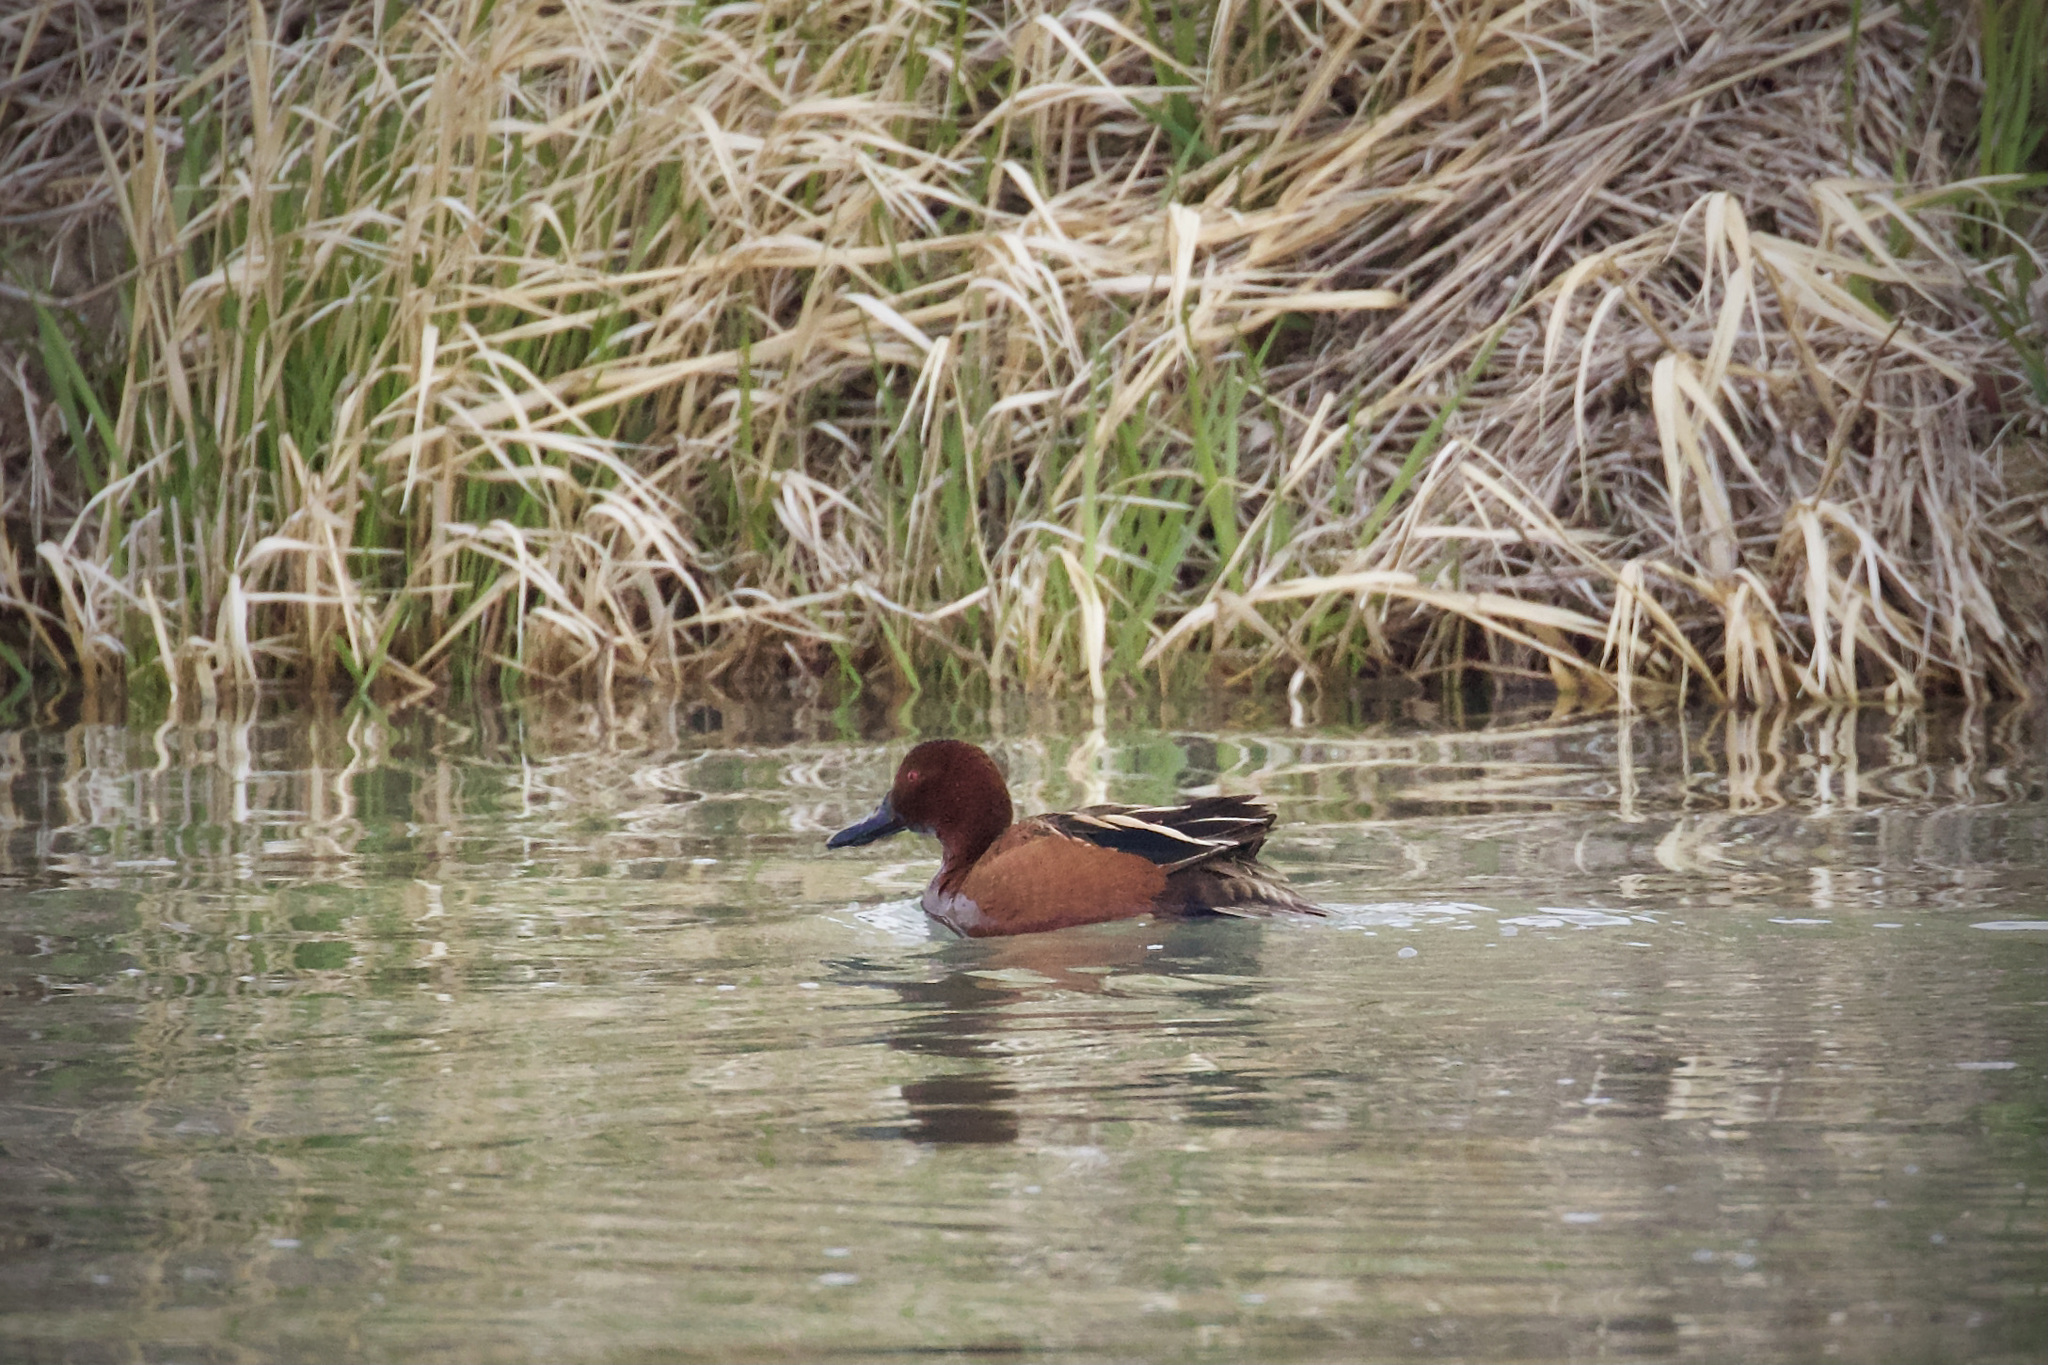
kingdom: Animalia
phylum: Chordata
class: Aves
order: Anseriformes
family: Anatidae
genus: Spatula
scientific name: Spatula cyanoptera
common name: Cinnamon teal
